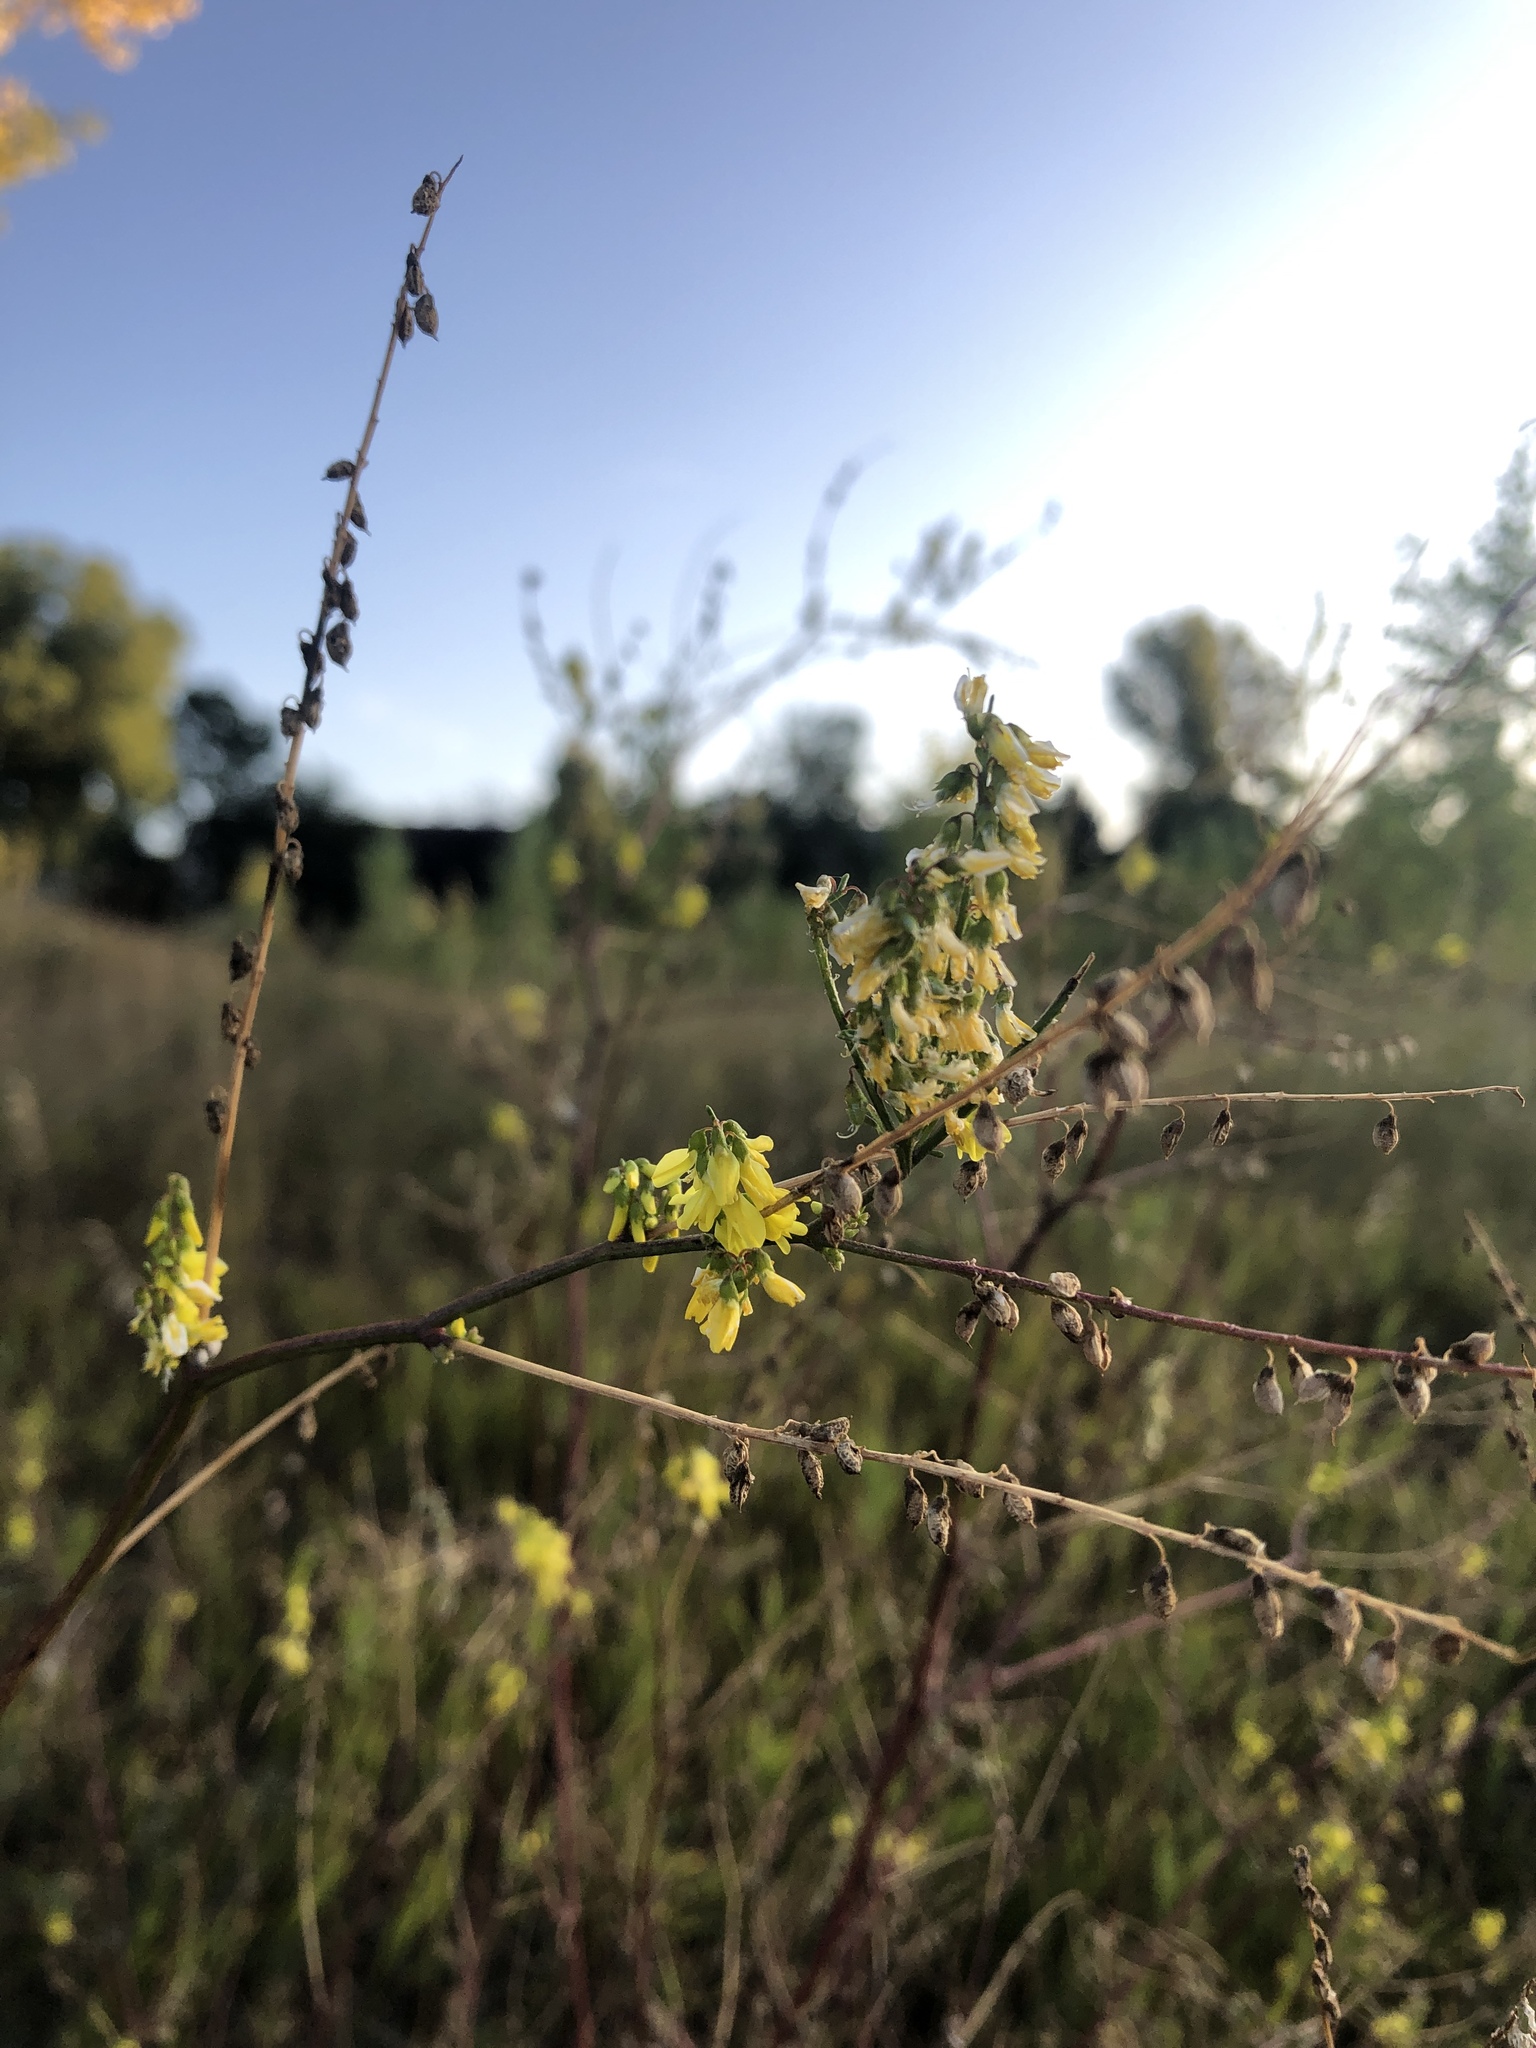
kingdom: Plantae
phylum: Tracheophyta
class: Magnoliopsida
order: Fabales
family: Fabaceae
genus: Melilotus
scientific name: Melilotus officinalis
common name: Sweetclover
